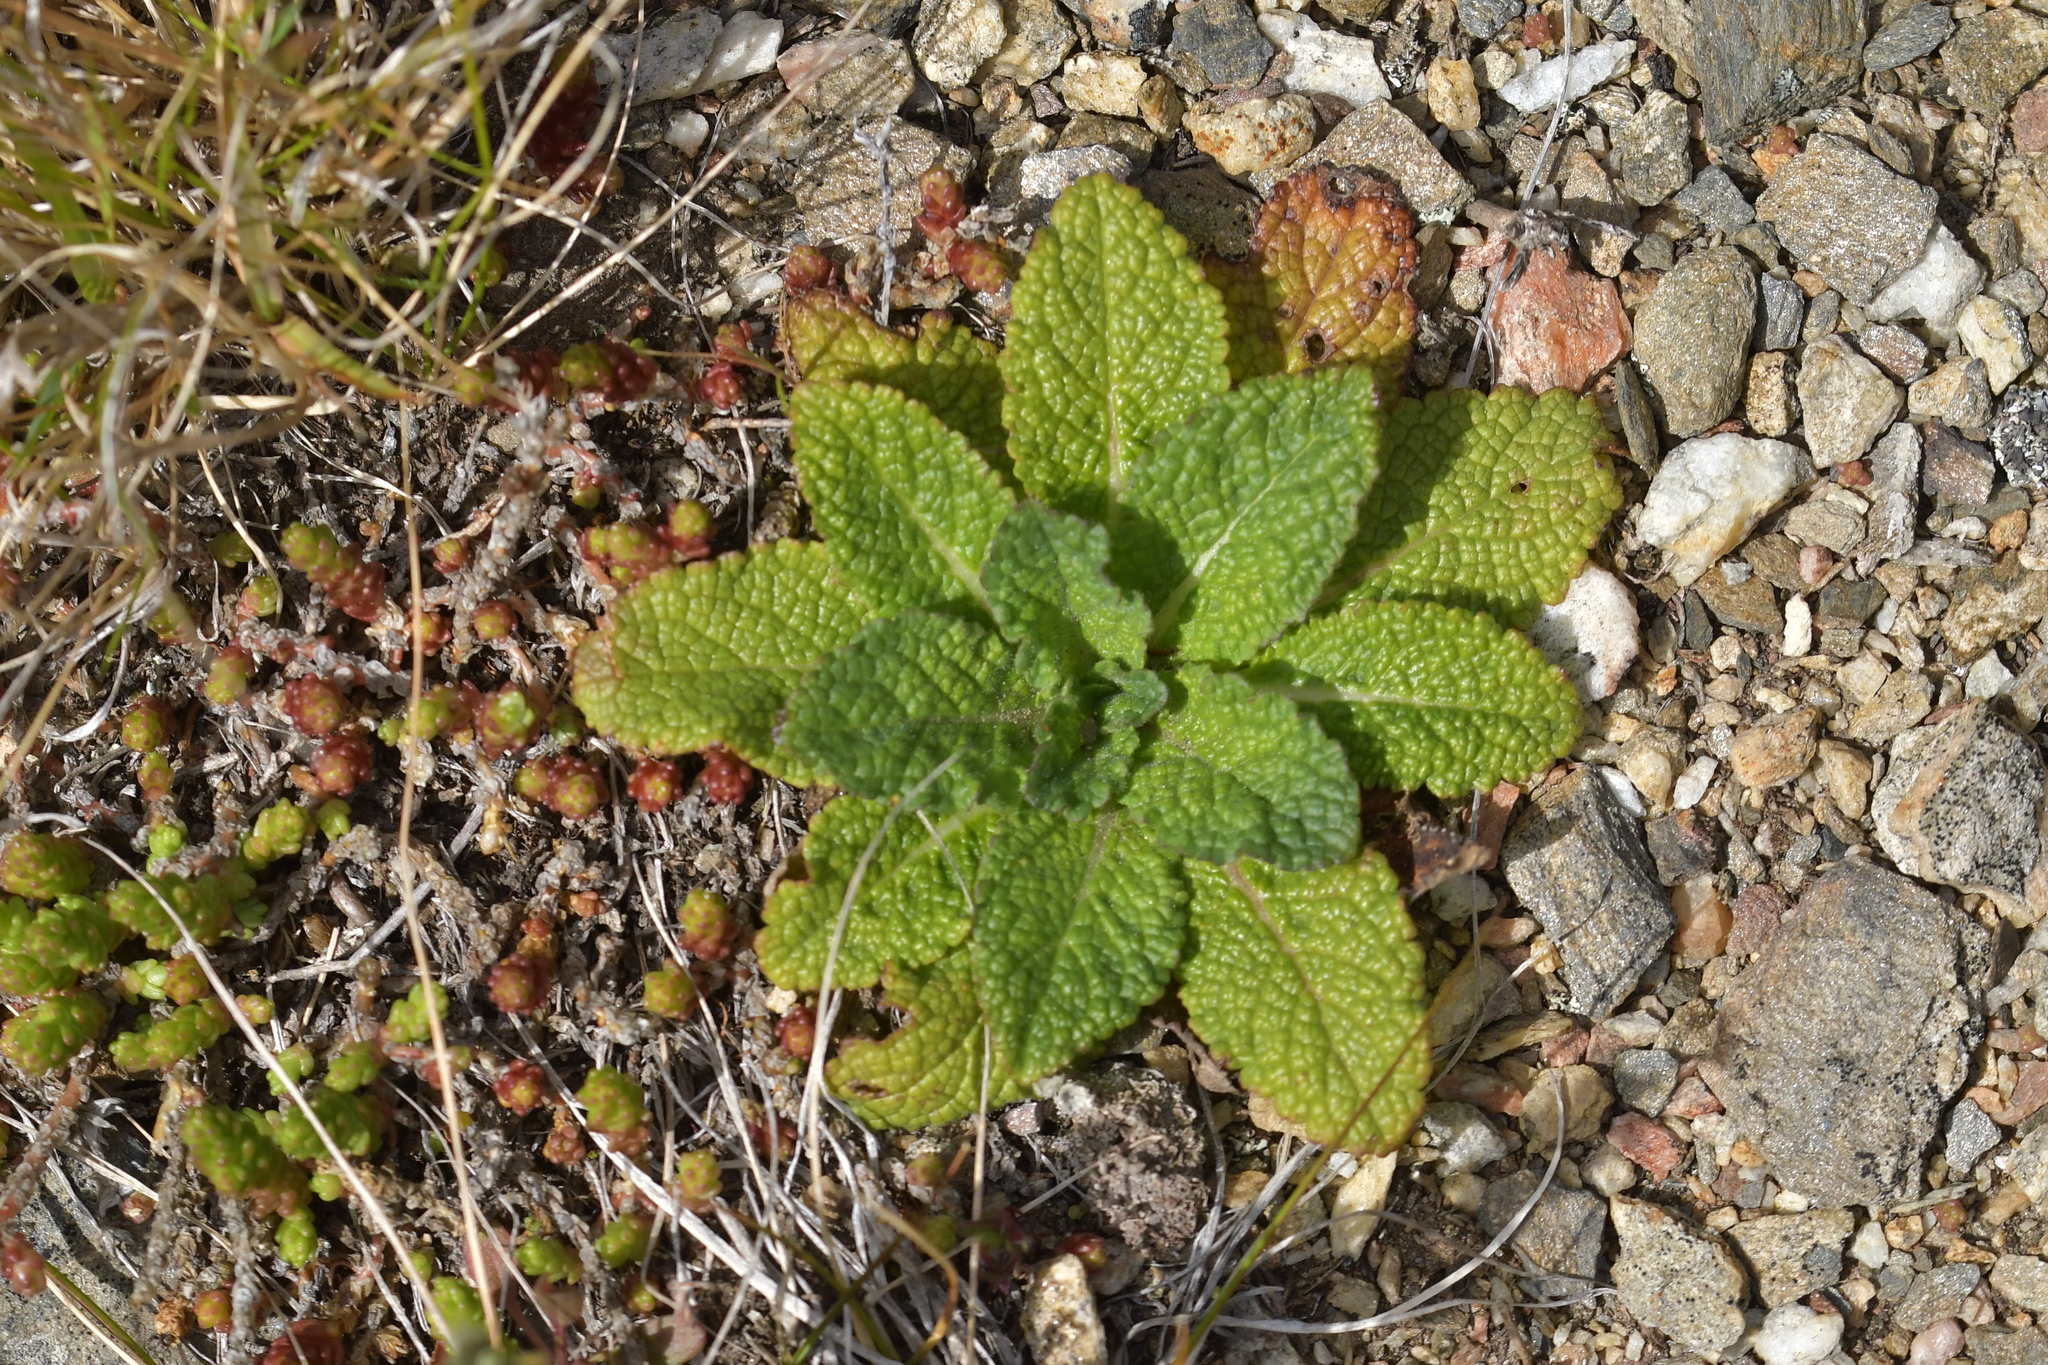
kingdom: Plantae
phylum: Tracheophyta
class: Magnoliopsida
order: Lamiales
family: Scrophulariaceae
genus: Verbascum
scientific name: Verbascum virgatum
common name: Twiggy mullein
